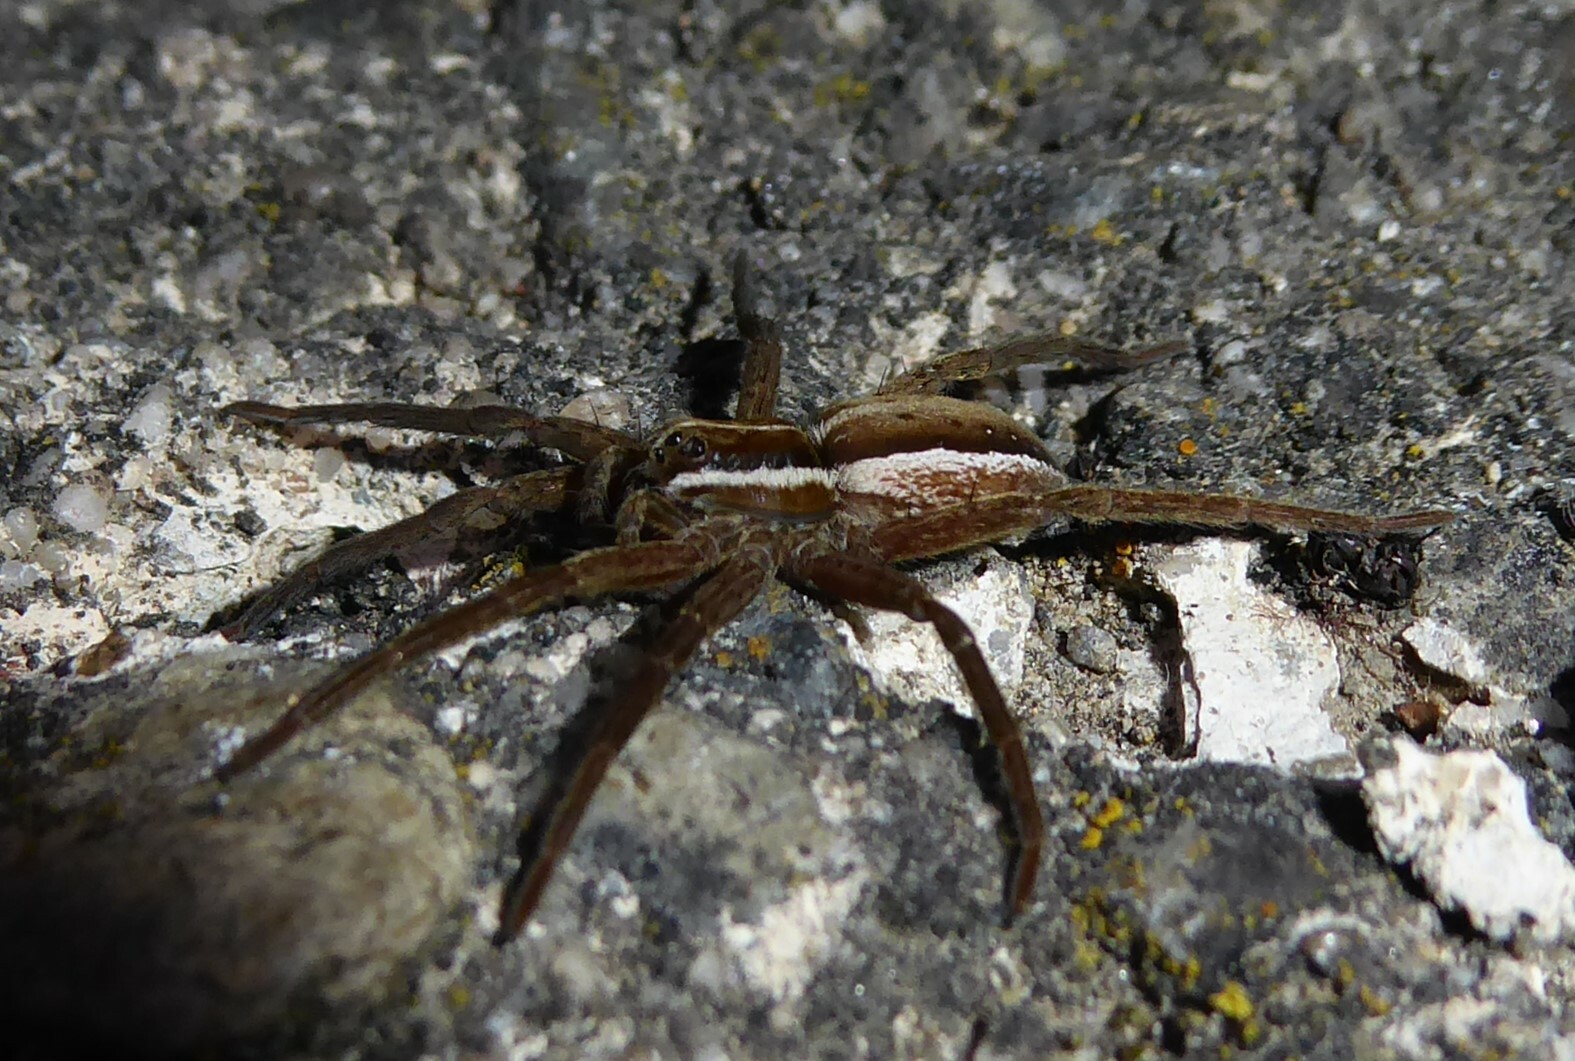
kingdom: Animalia
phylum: Arthropoda
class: Arachnida
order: Araneae
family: Pisauridae
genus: Dolomedes
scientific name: Dolomedes minor
